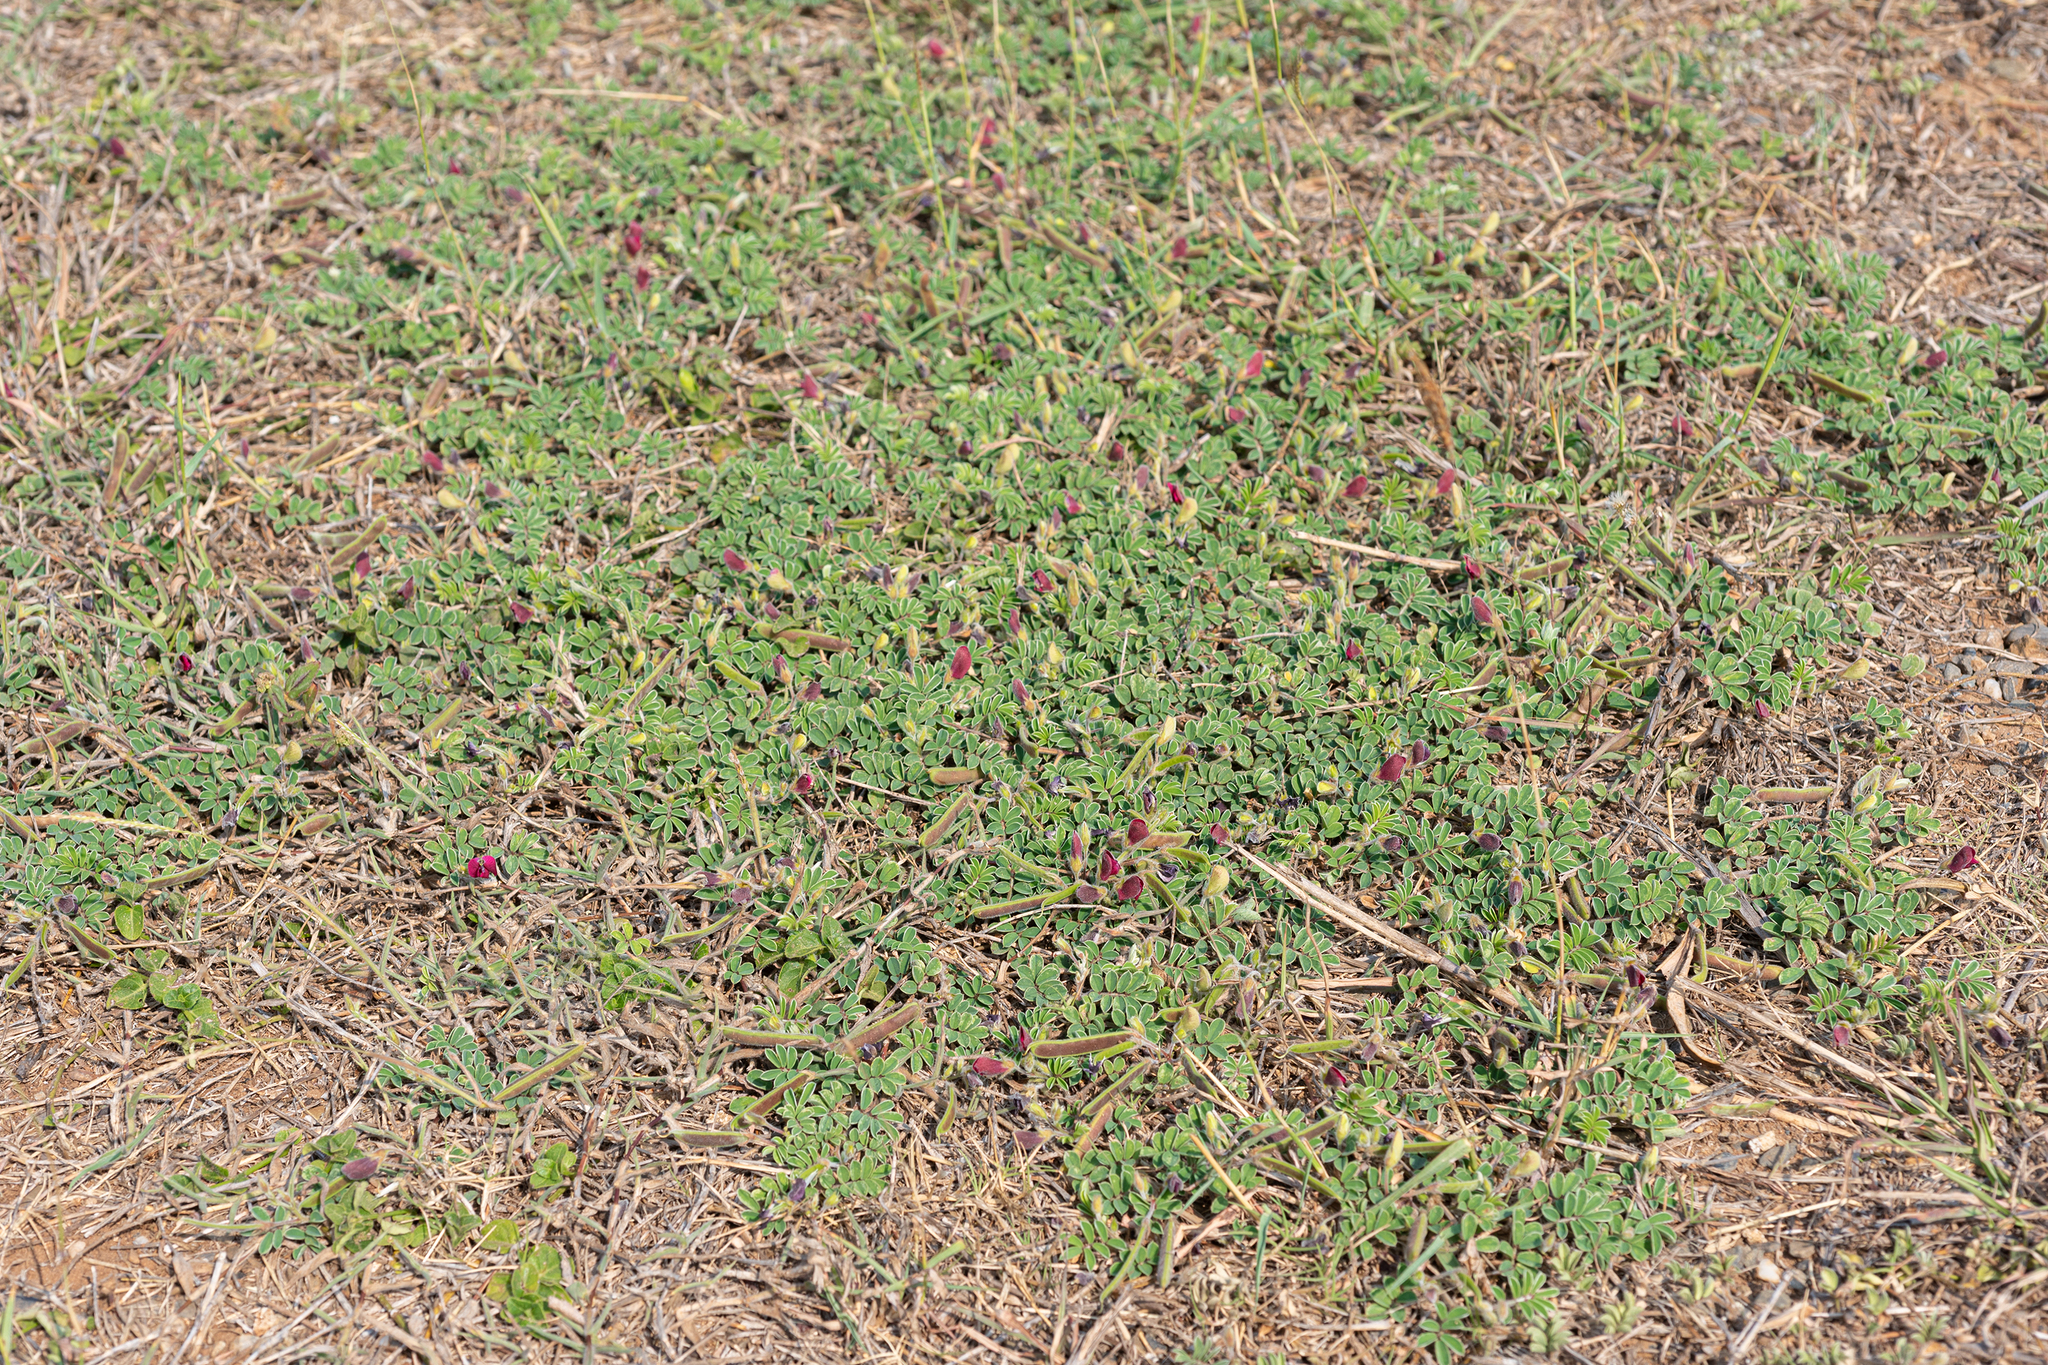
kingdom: Plantae
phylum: Tracheophyta
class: Magnoliopsida
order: Fabales
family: Fabaceae
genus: Tephrosia
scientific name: Tephrosia obovata
